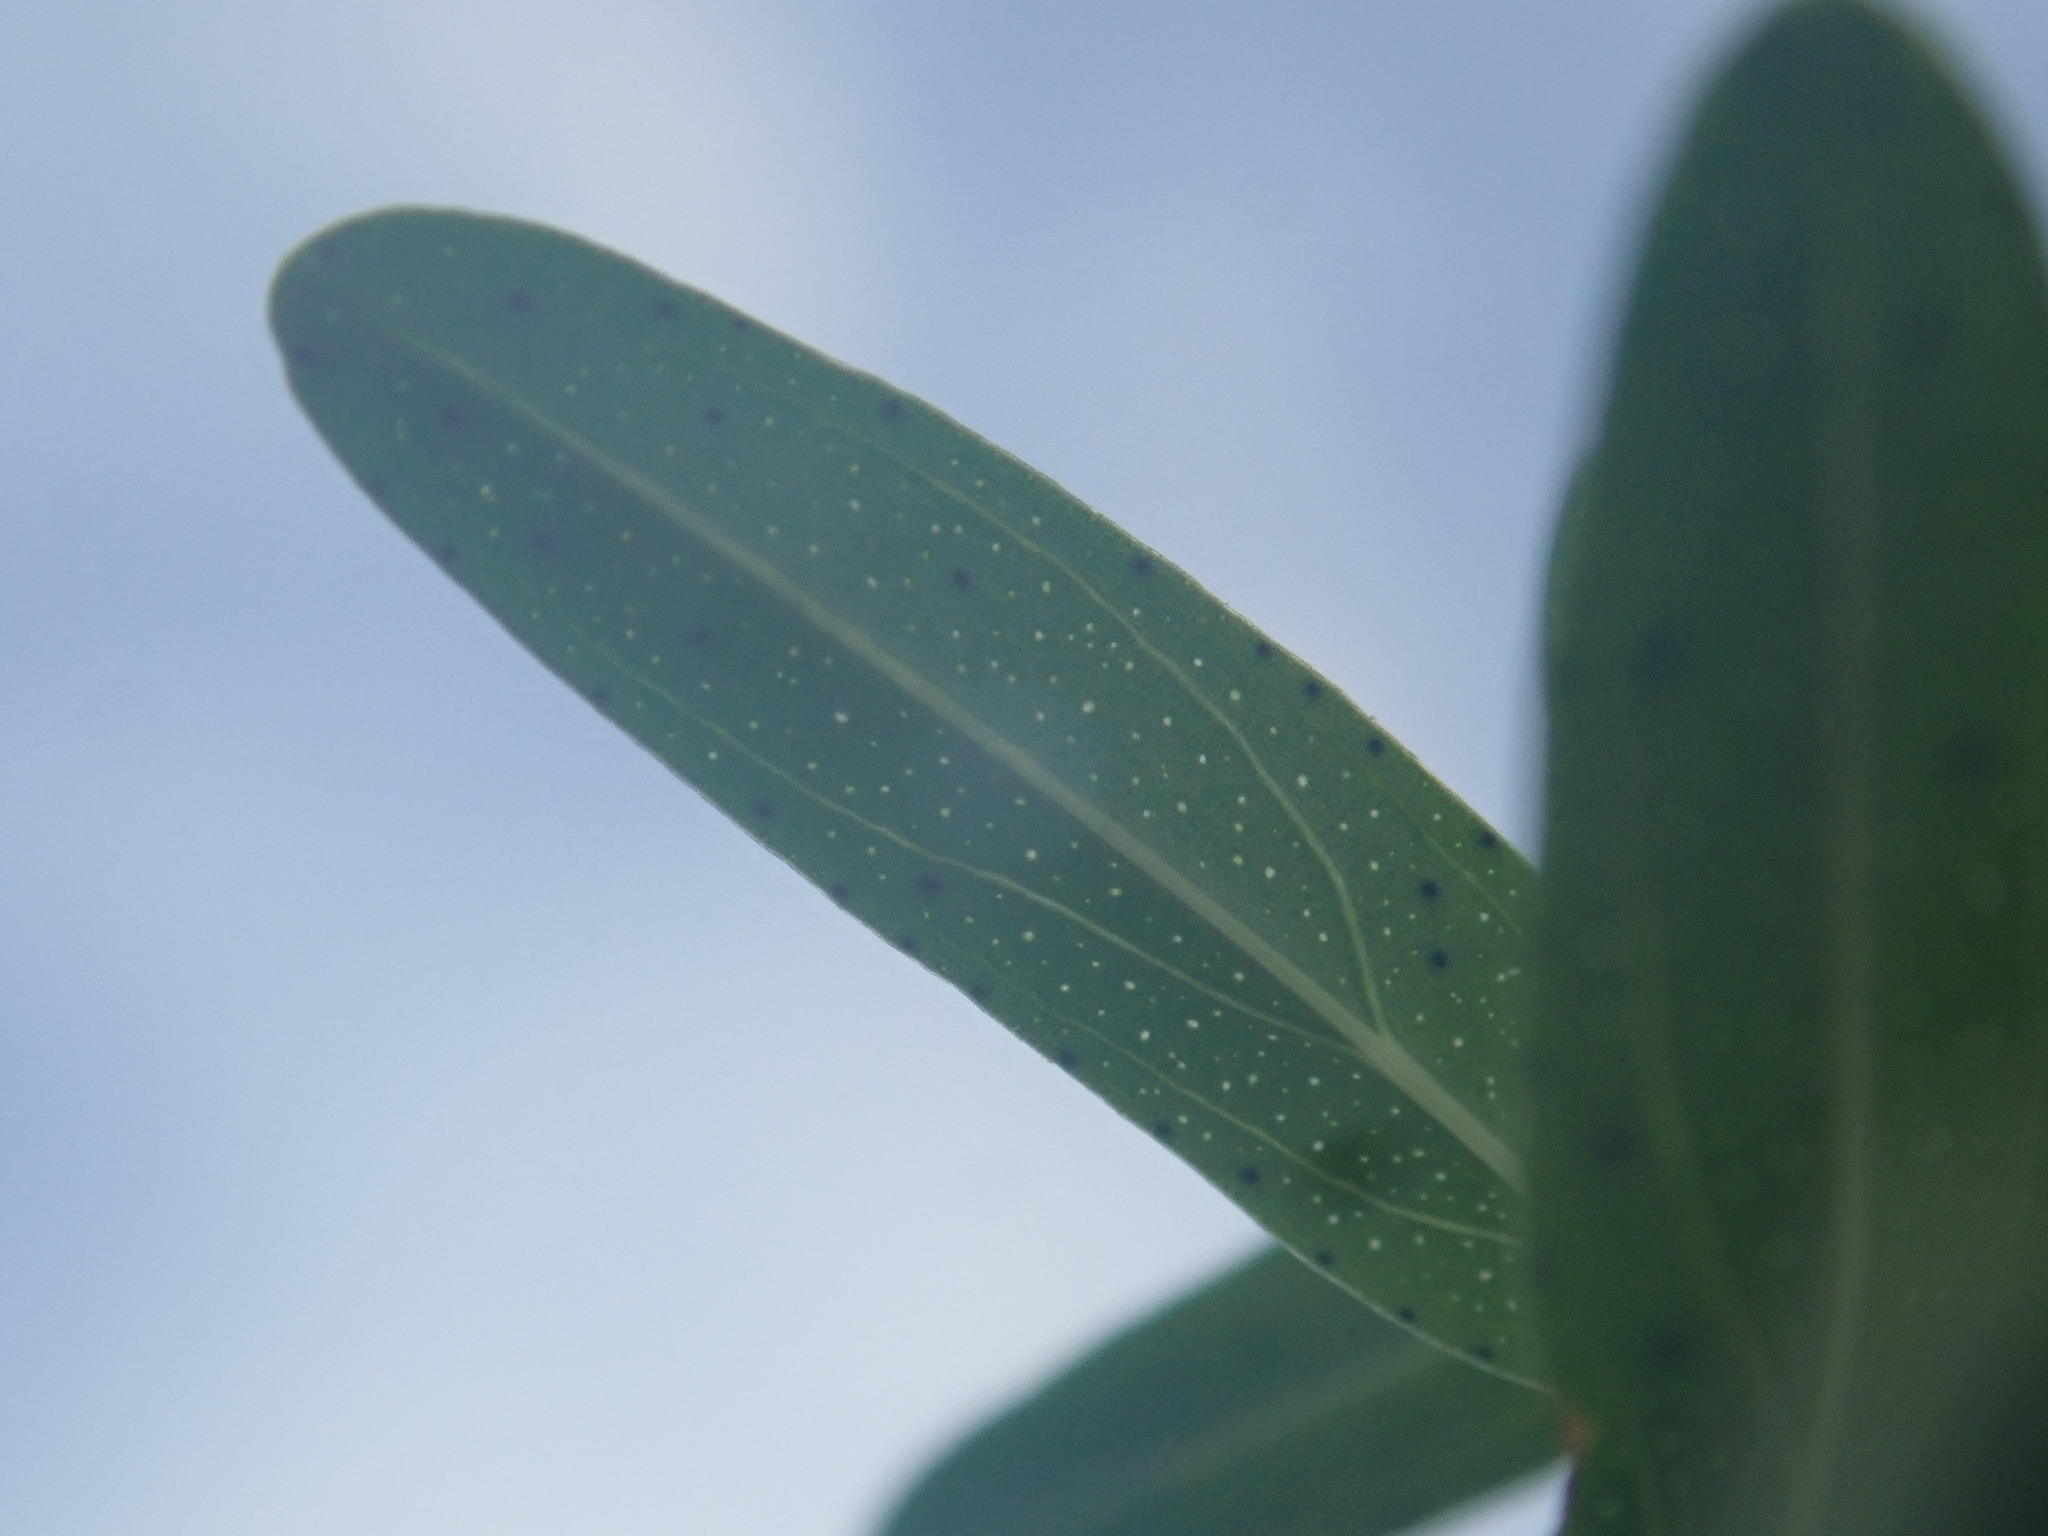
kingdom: Plantae
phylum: Tracheophyta
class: Magnoliopsida
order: Malpighiales
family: Hypericaceae
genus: Hypericum
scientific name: Hypericum perforatum
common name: Common st. johnswort
